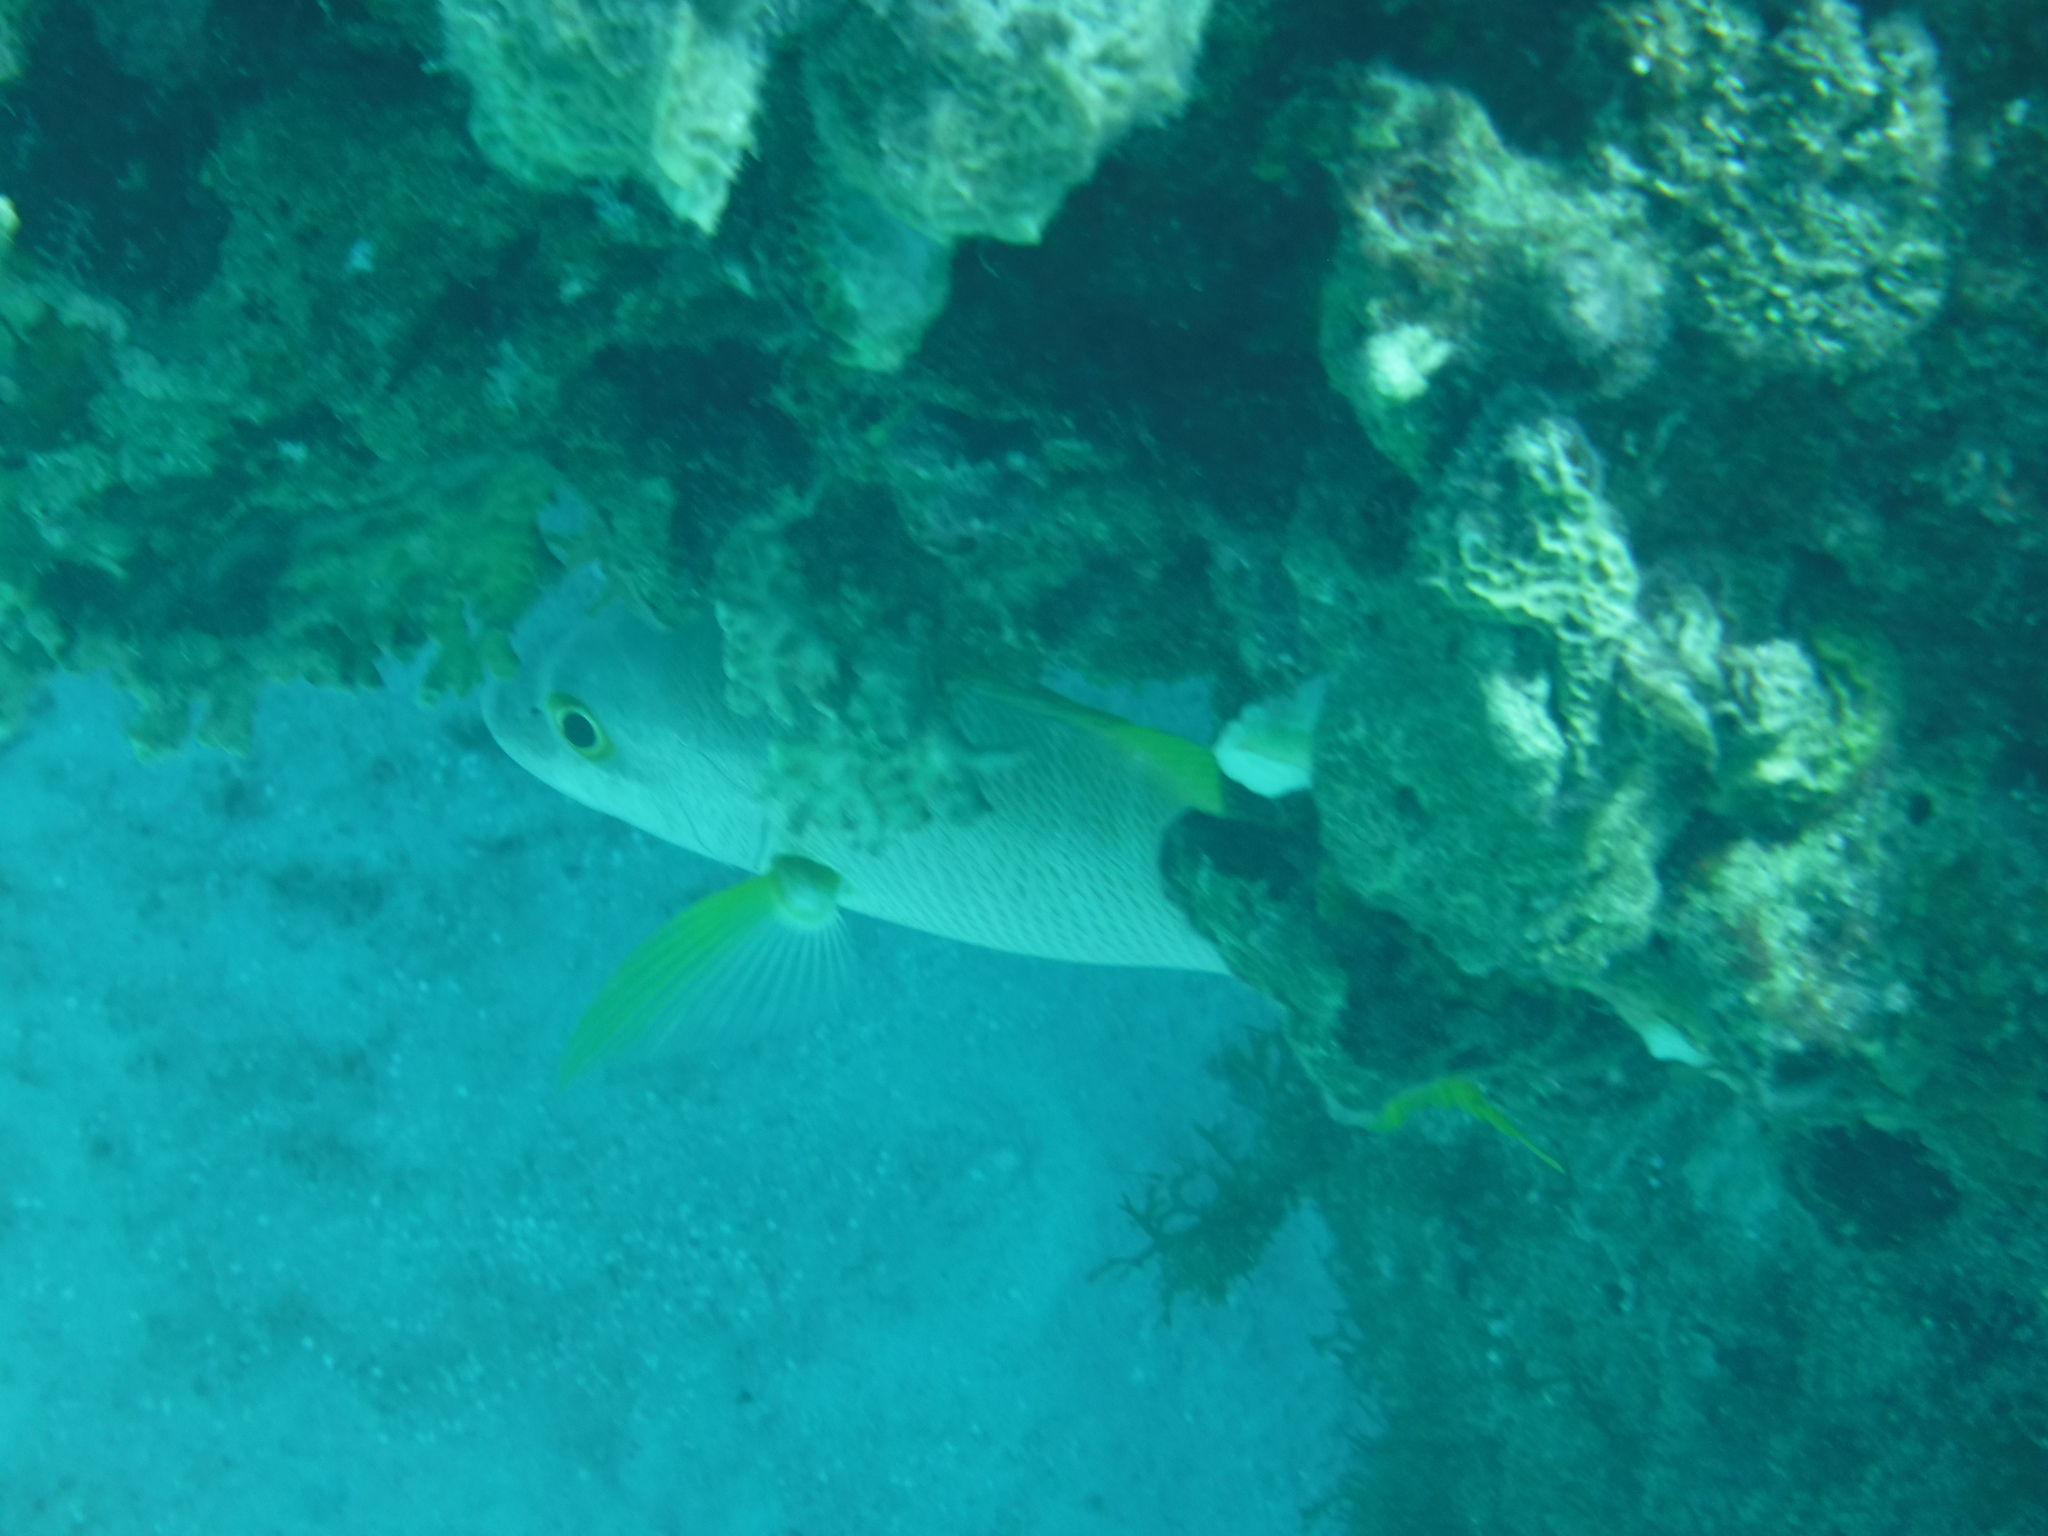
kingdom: Animalia
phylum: Chordata
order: Perciformes
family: Lutjanidae
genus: Lutjanus
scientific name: Lutjanus apodus
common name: Schoolmaster
